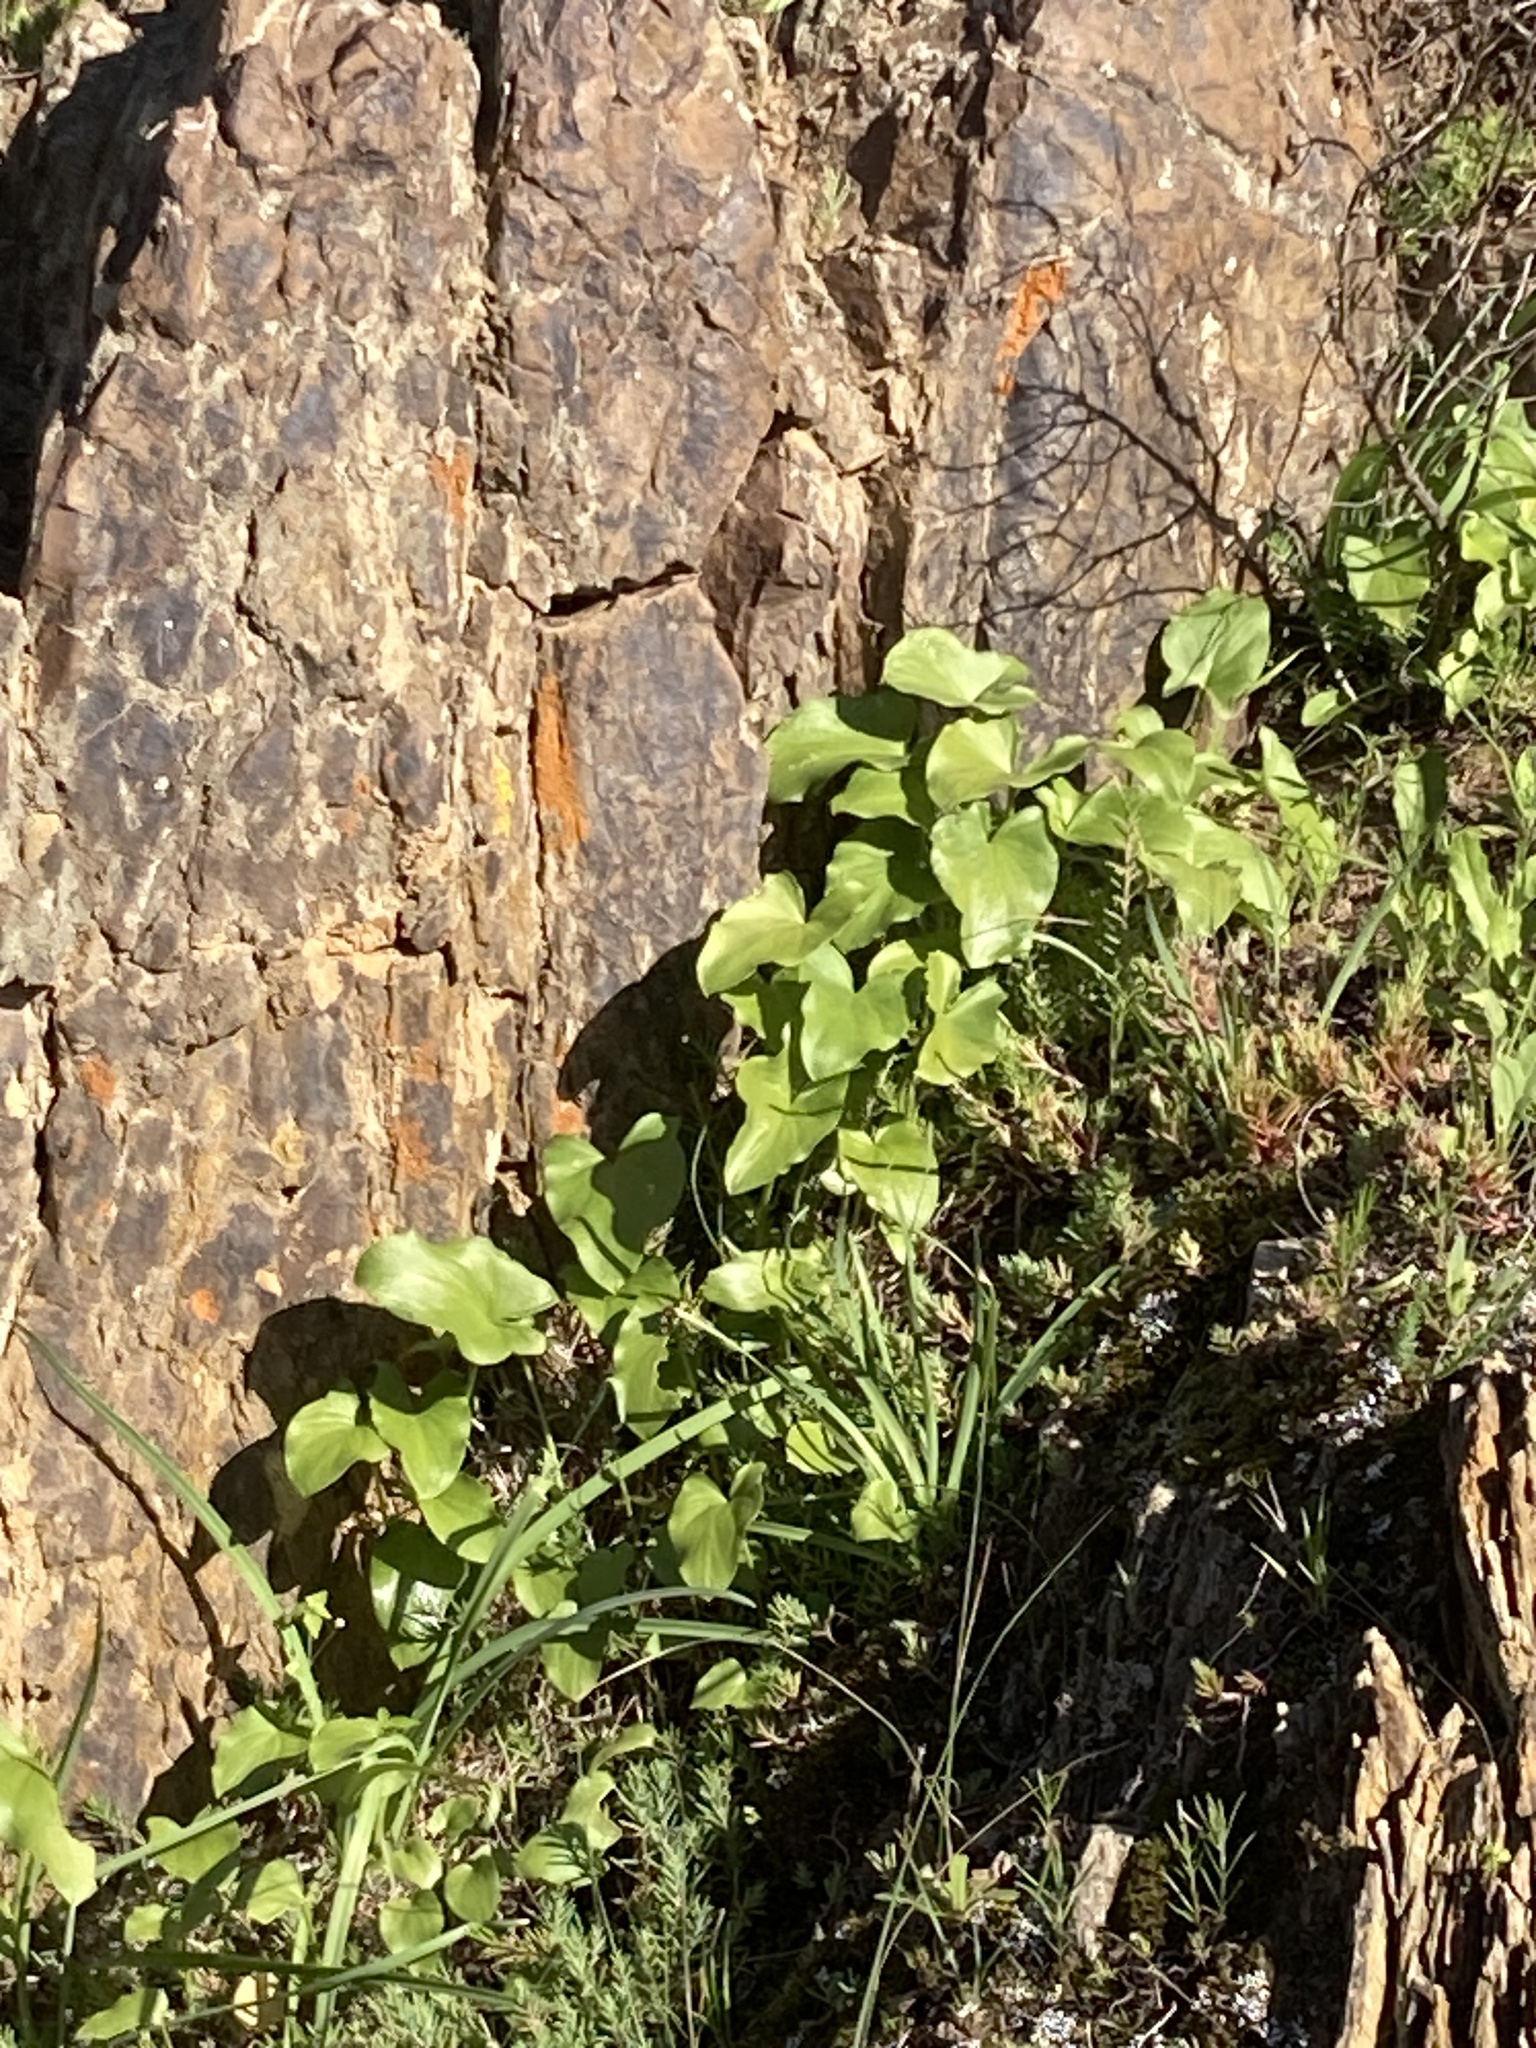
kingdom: Plantae
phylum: Tracheophyta
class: Liliopsida
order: Alismatales
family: Araceae
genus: Arisarum
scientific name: Arisarum simorrhinum
